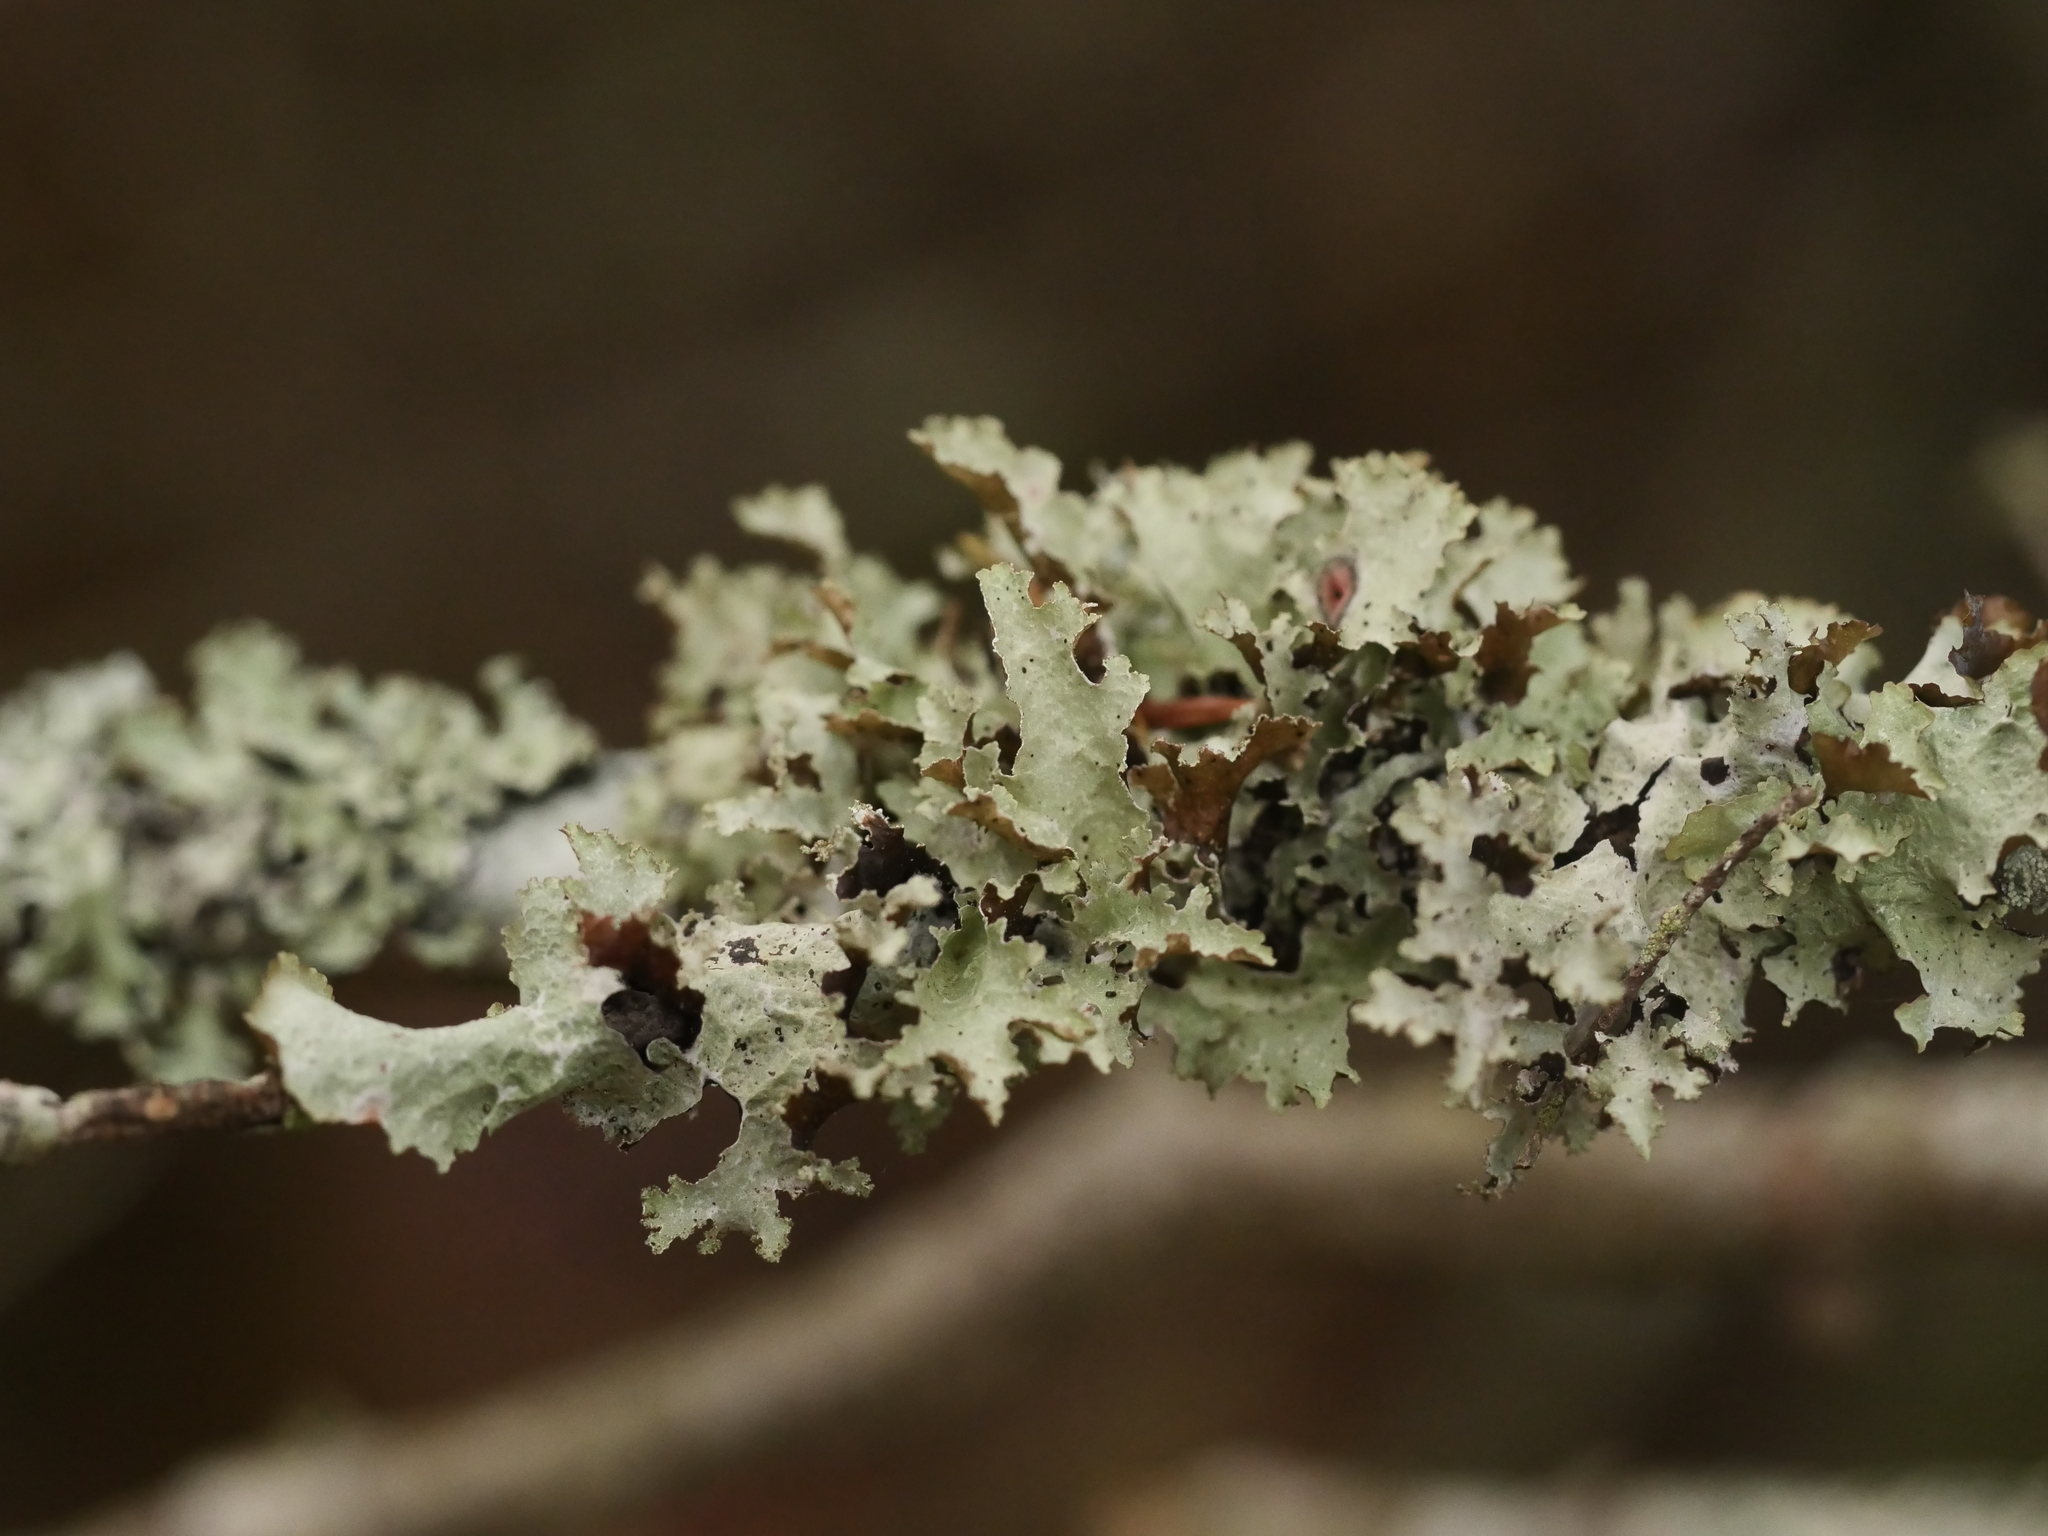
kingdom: Fungi
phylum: Ascomycota
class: Lecanoromycetes
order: Lecanorales
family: Parmeliaceae
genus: Platismatia
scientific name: Platismatia glauca
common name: Varied rag lichen
